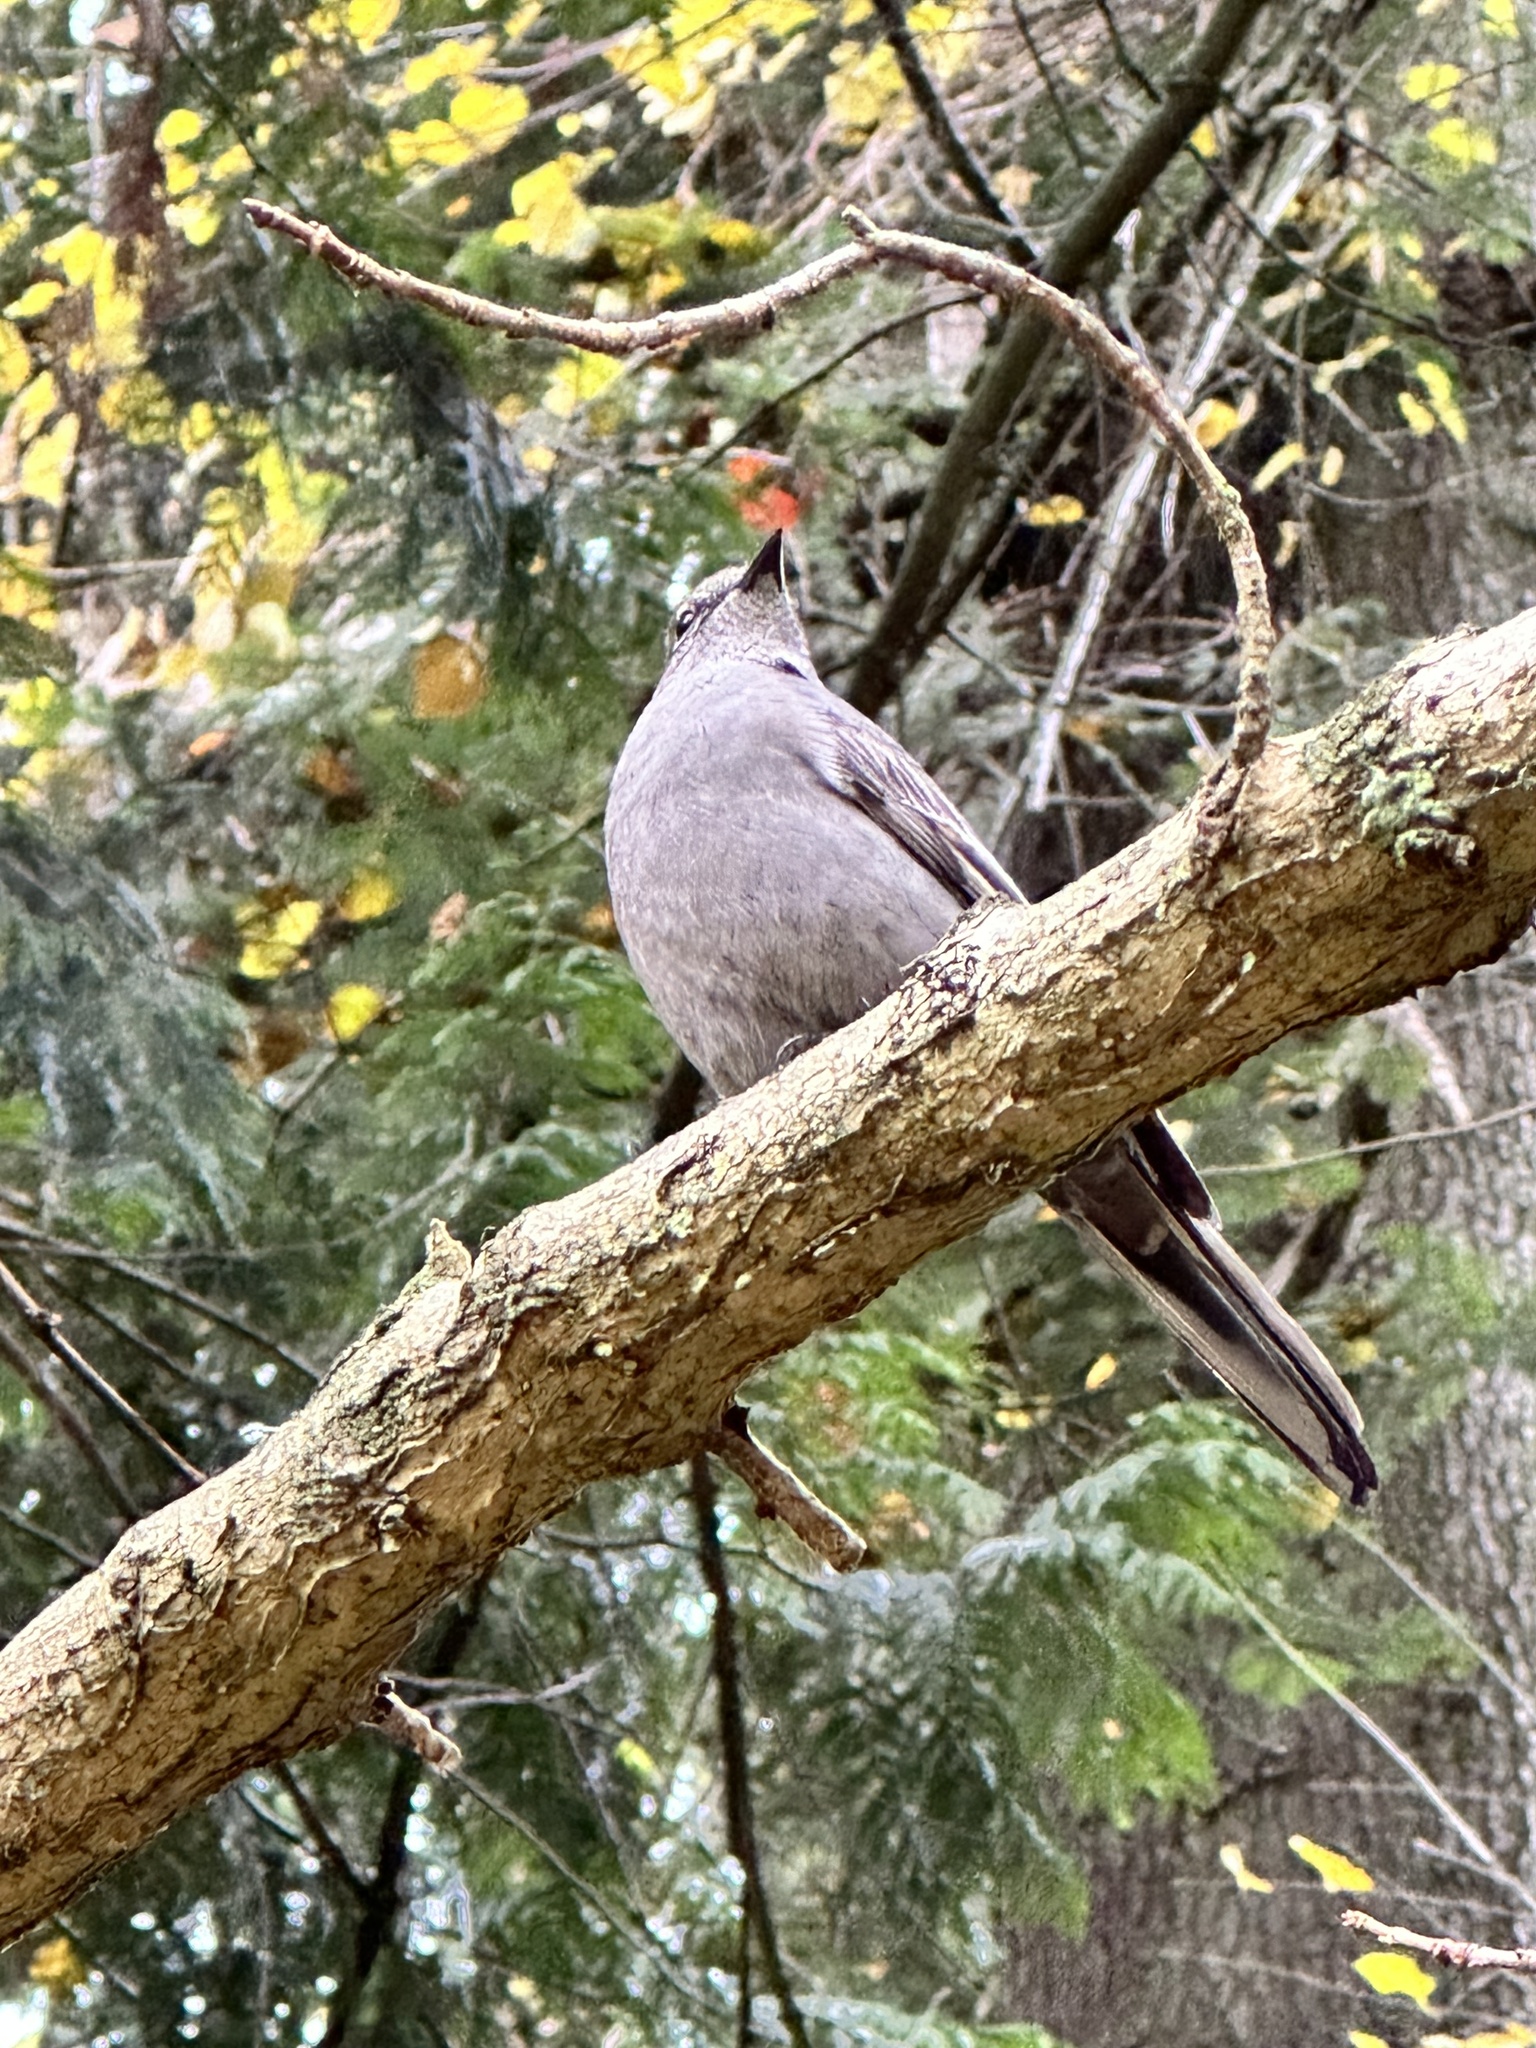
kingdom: Animalia
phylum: Chordata
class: Aves
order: Passeriformes
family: Turdidae
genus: Myadestes
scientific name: Myadestes townsendi
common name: Townsend's solitaire
